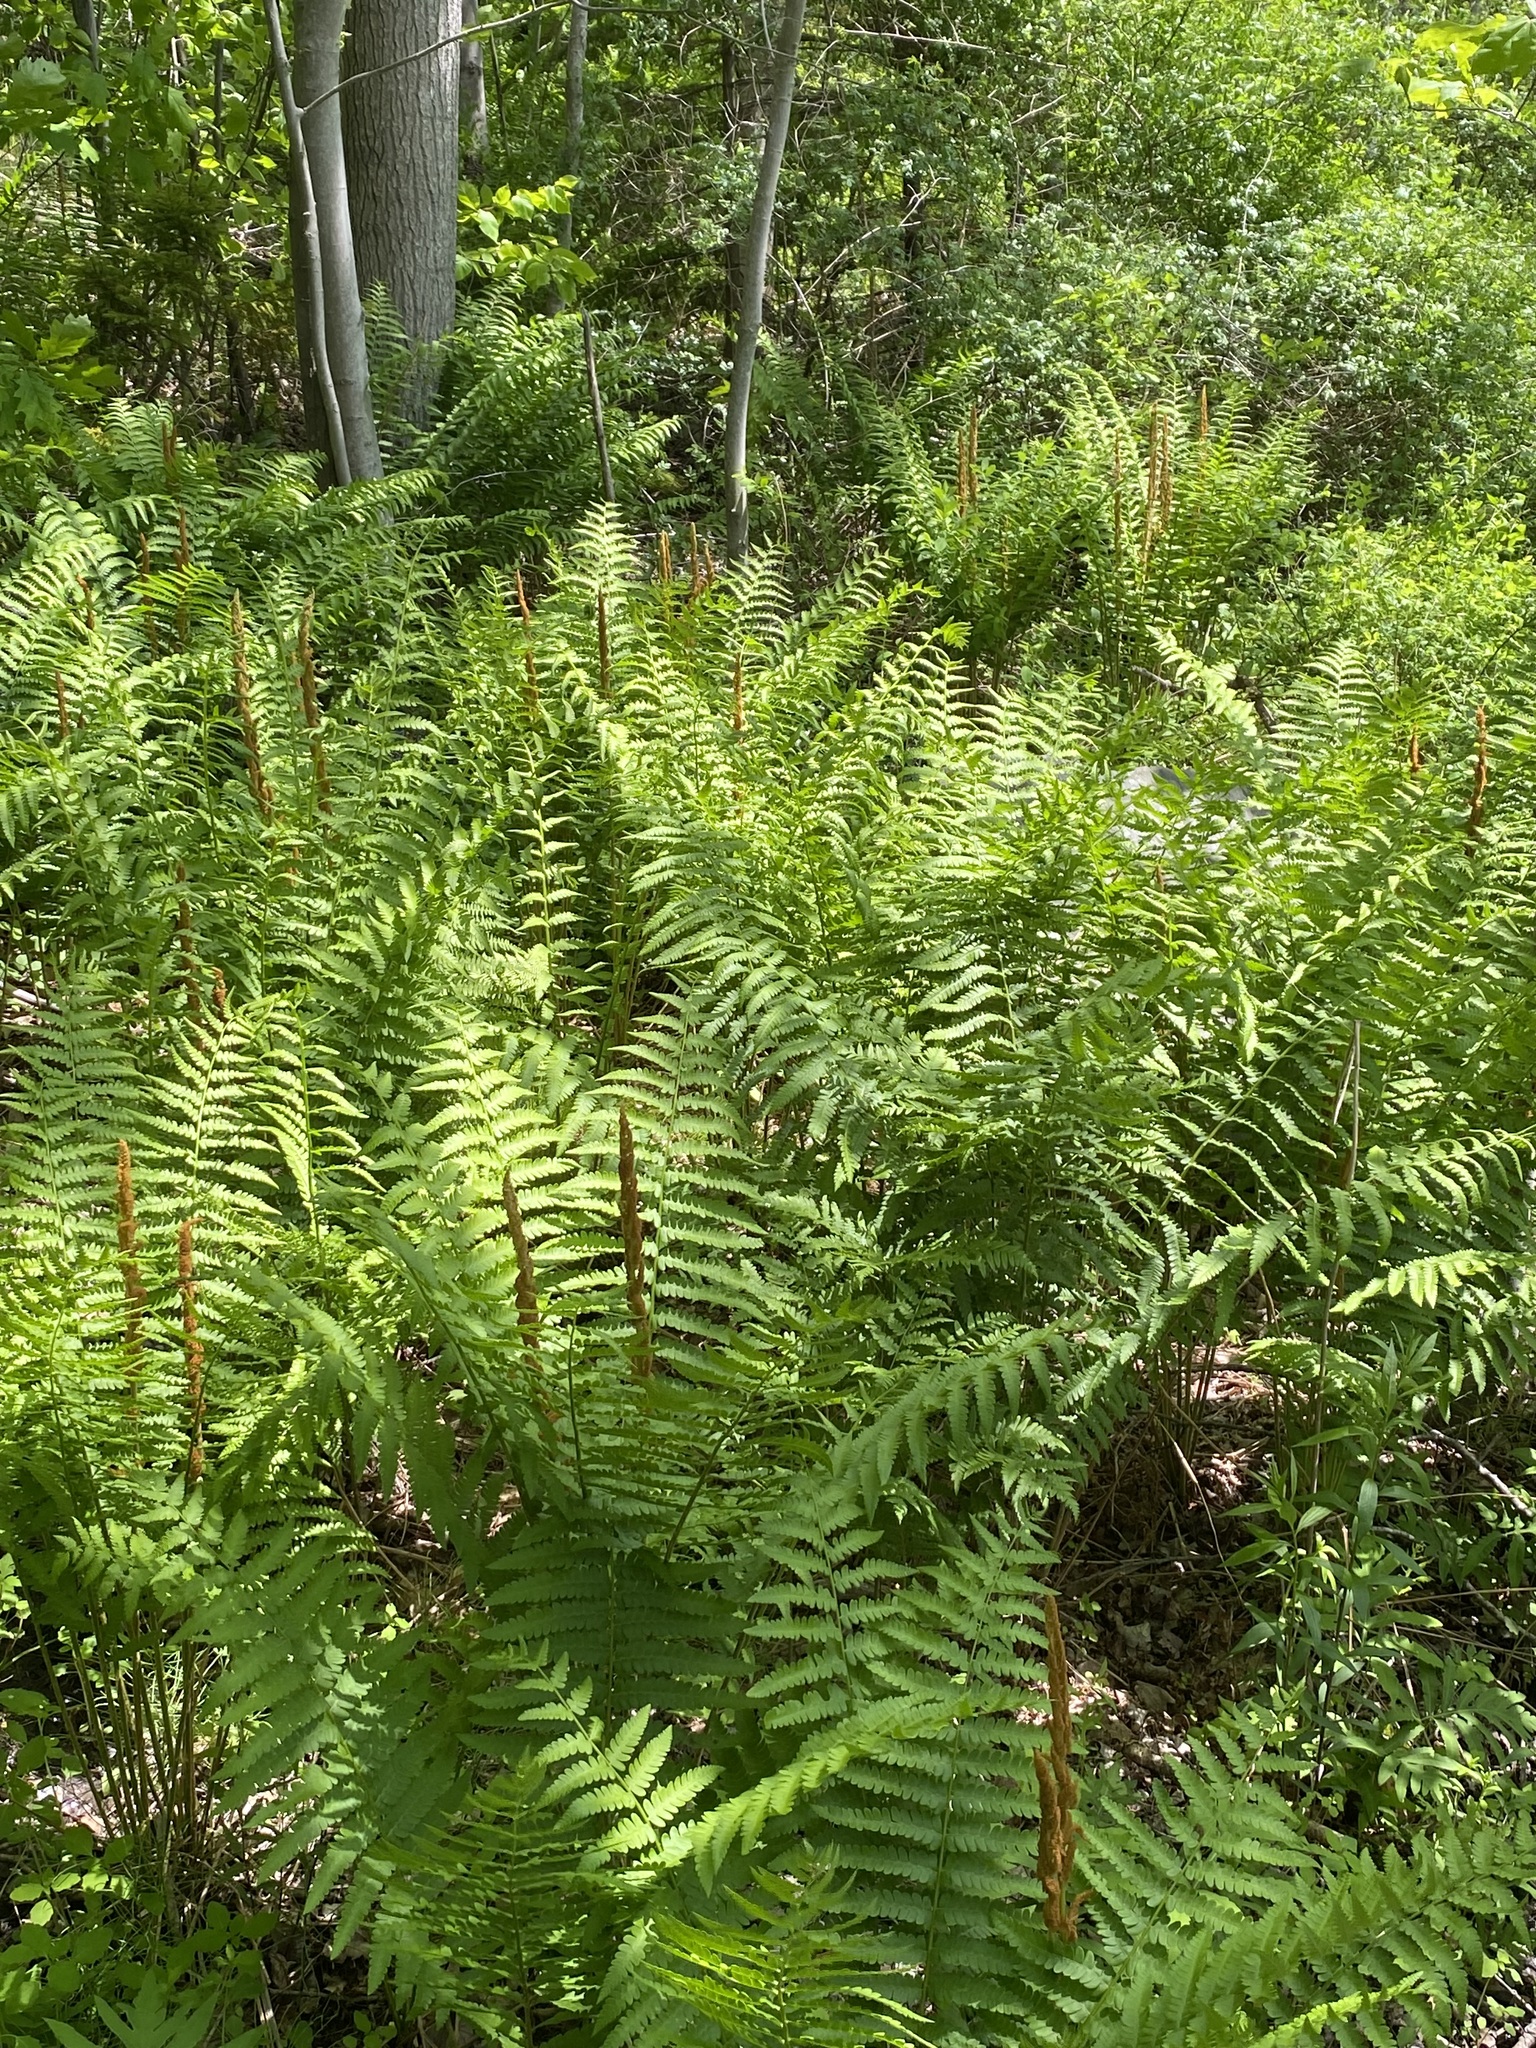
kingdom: Plantae
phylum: Tracheophyta
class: Polypodiopsida
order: Osmundales
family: Osmundaceae
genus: Osmundastrum
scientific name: Osmundastrum cinnamomeum
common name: Cinnamon fern
